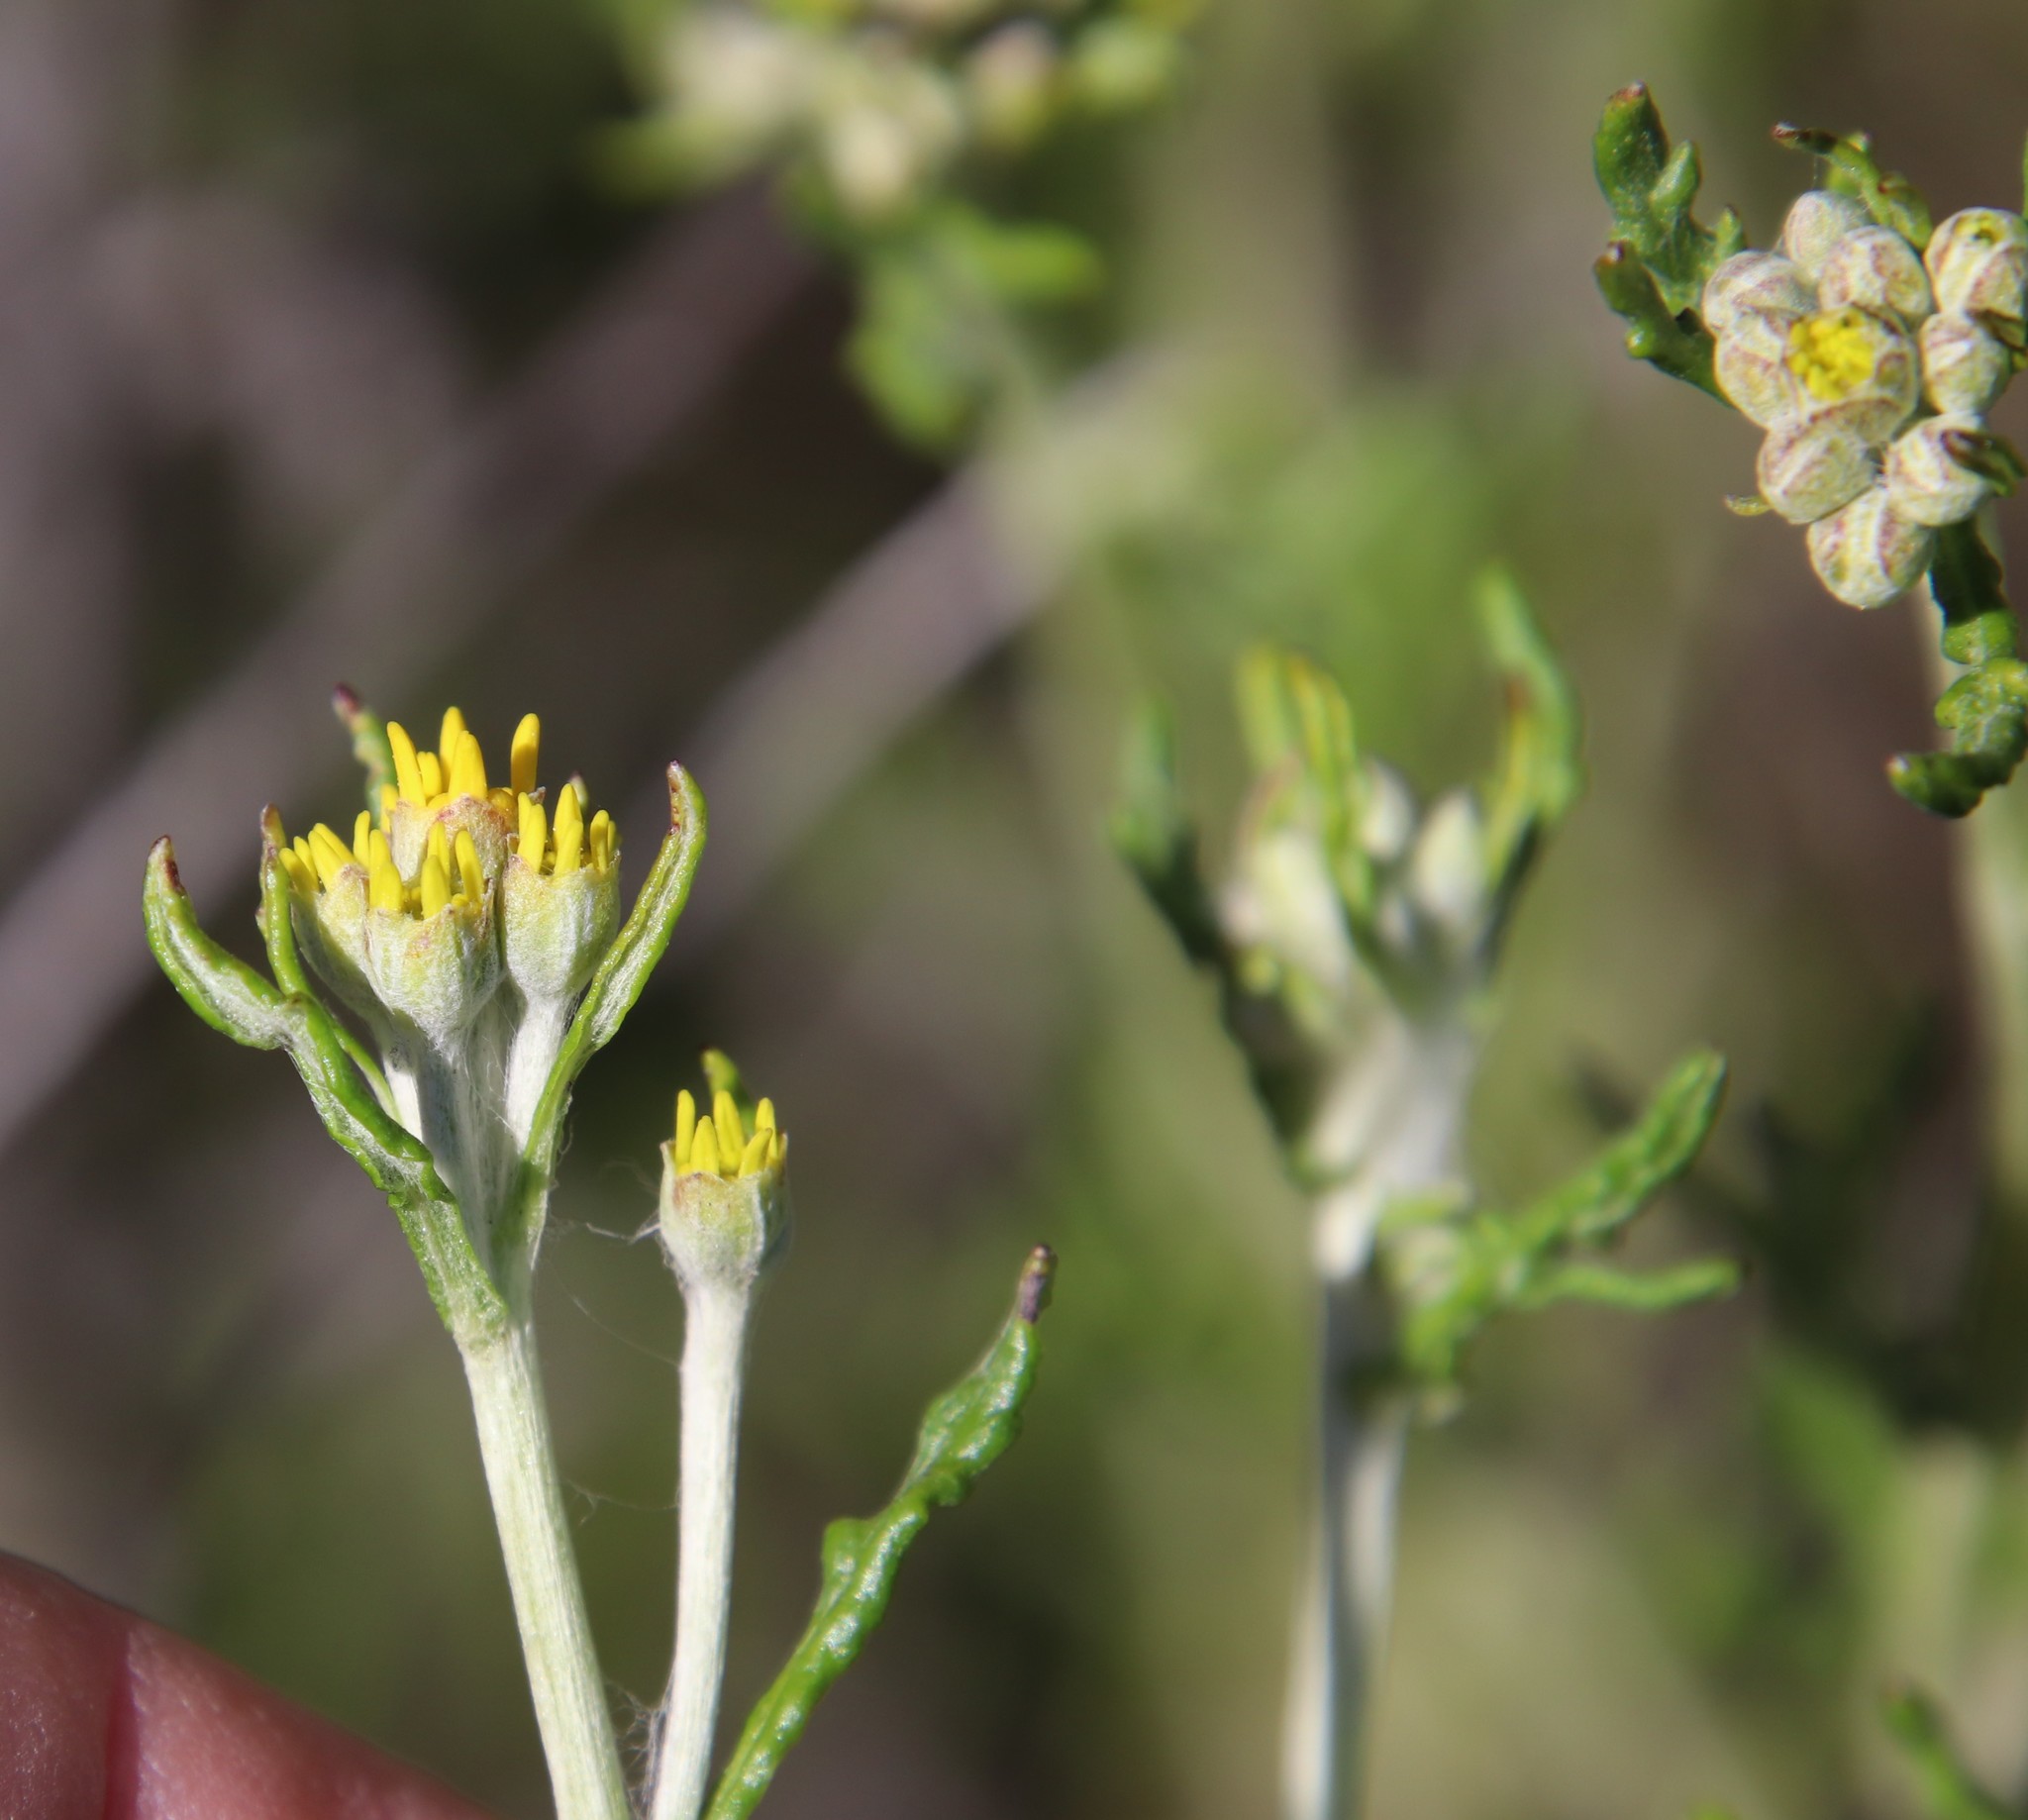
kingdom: Plantae
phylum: Tracheophyta
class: Magnoliopsida
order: Asterales
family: Asteraceae
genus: Eriophyllum
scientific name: Eriophyllum confertiflorum
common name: Golden-yarrow
